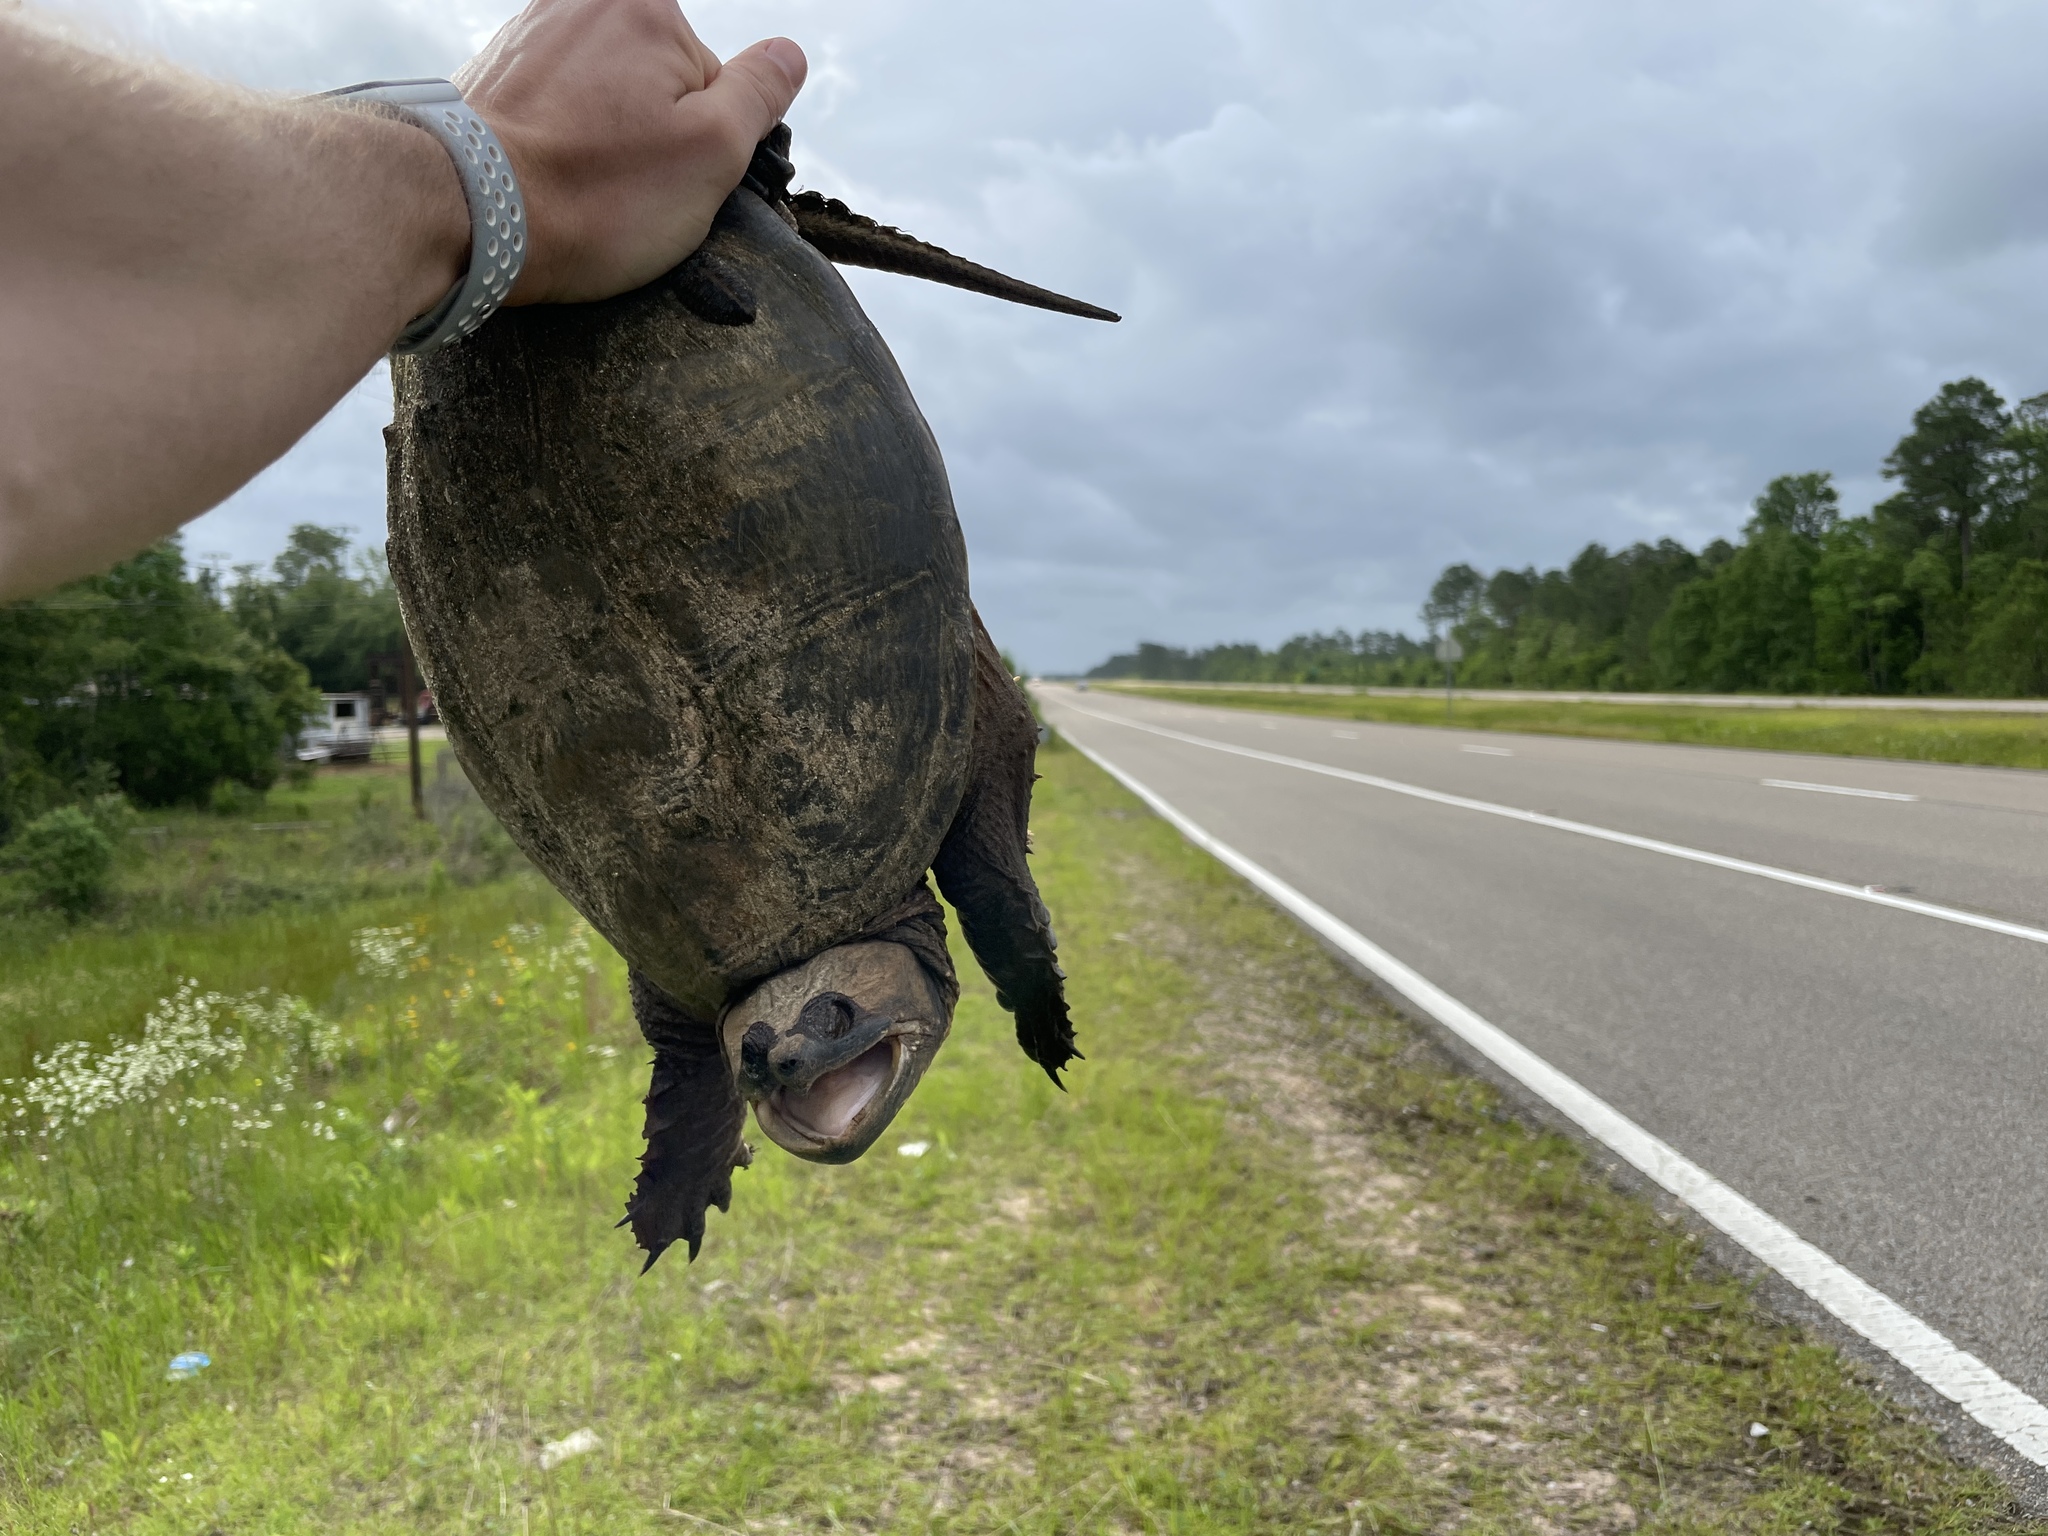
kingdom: Animalia
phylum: Chordata
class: Testudines
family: Chelydridae
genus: Chelydra
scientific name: Chelydra serpentina
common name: Common snapping turtle
